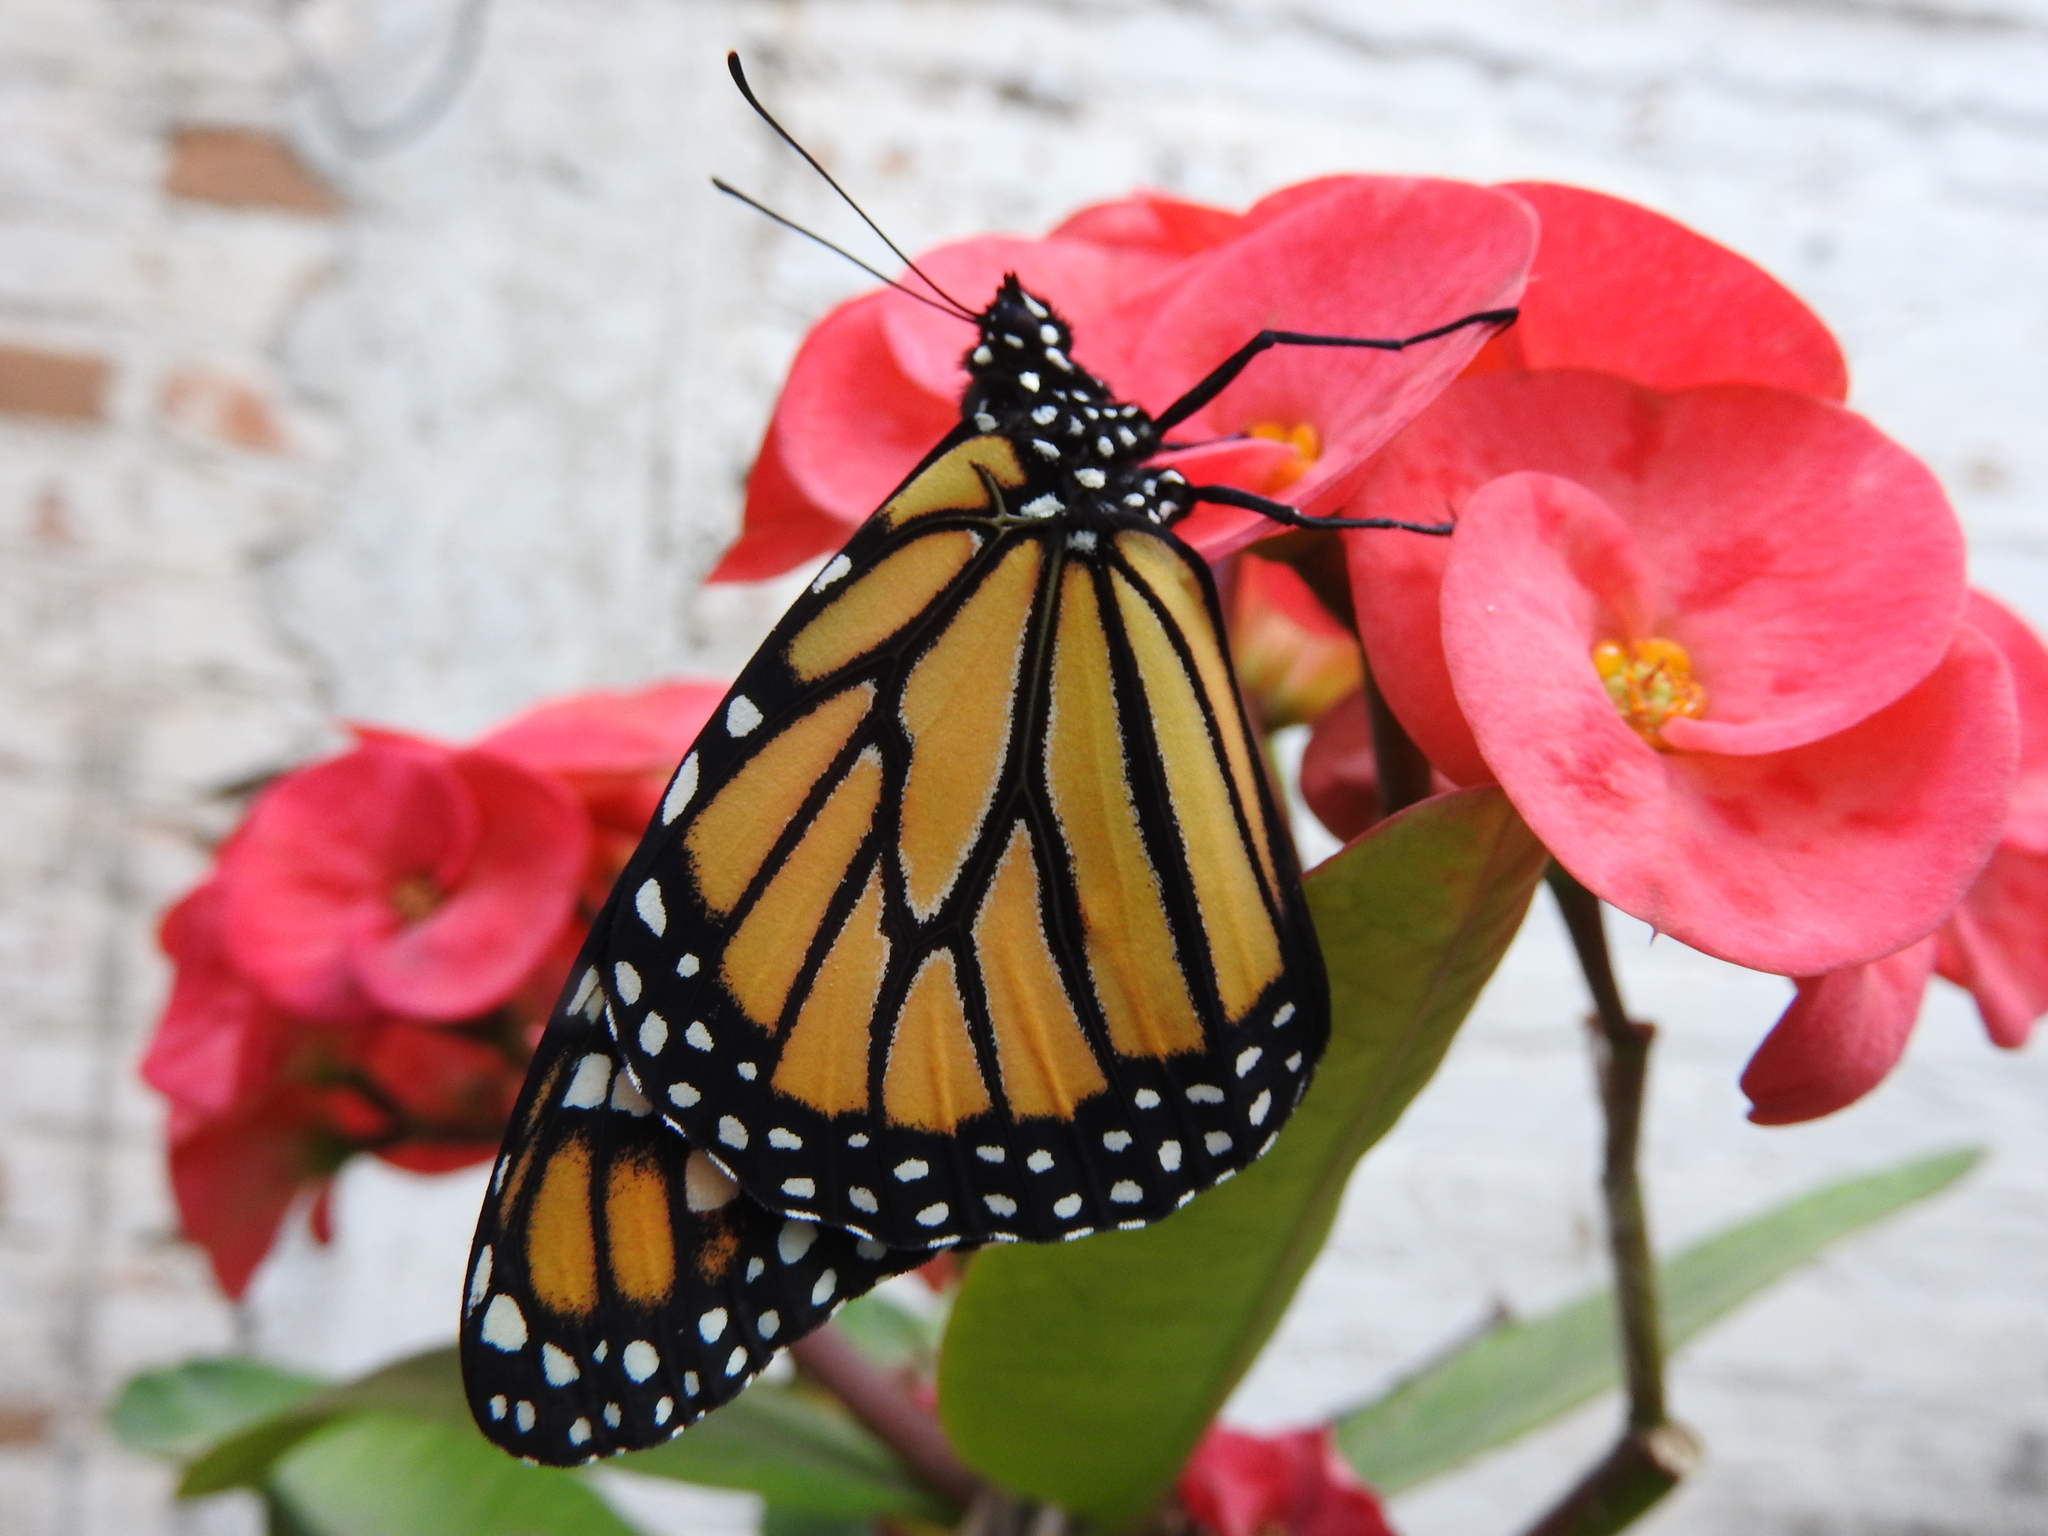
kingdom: Animalia
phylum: Arthropoda
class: Insecta
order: Lepidoptera
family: Nymphalidae
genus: Danaus
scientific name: Danaus plexippus
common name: Monarch
